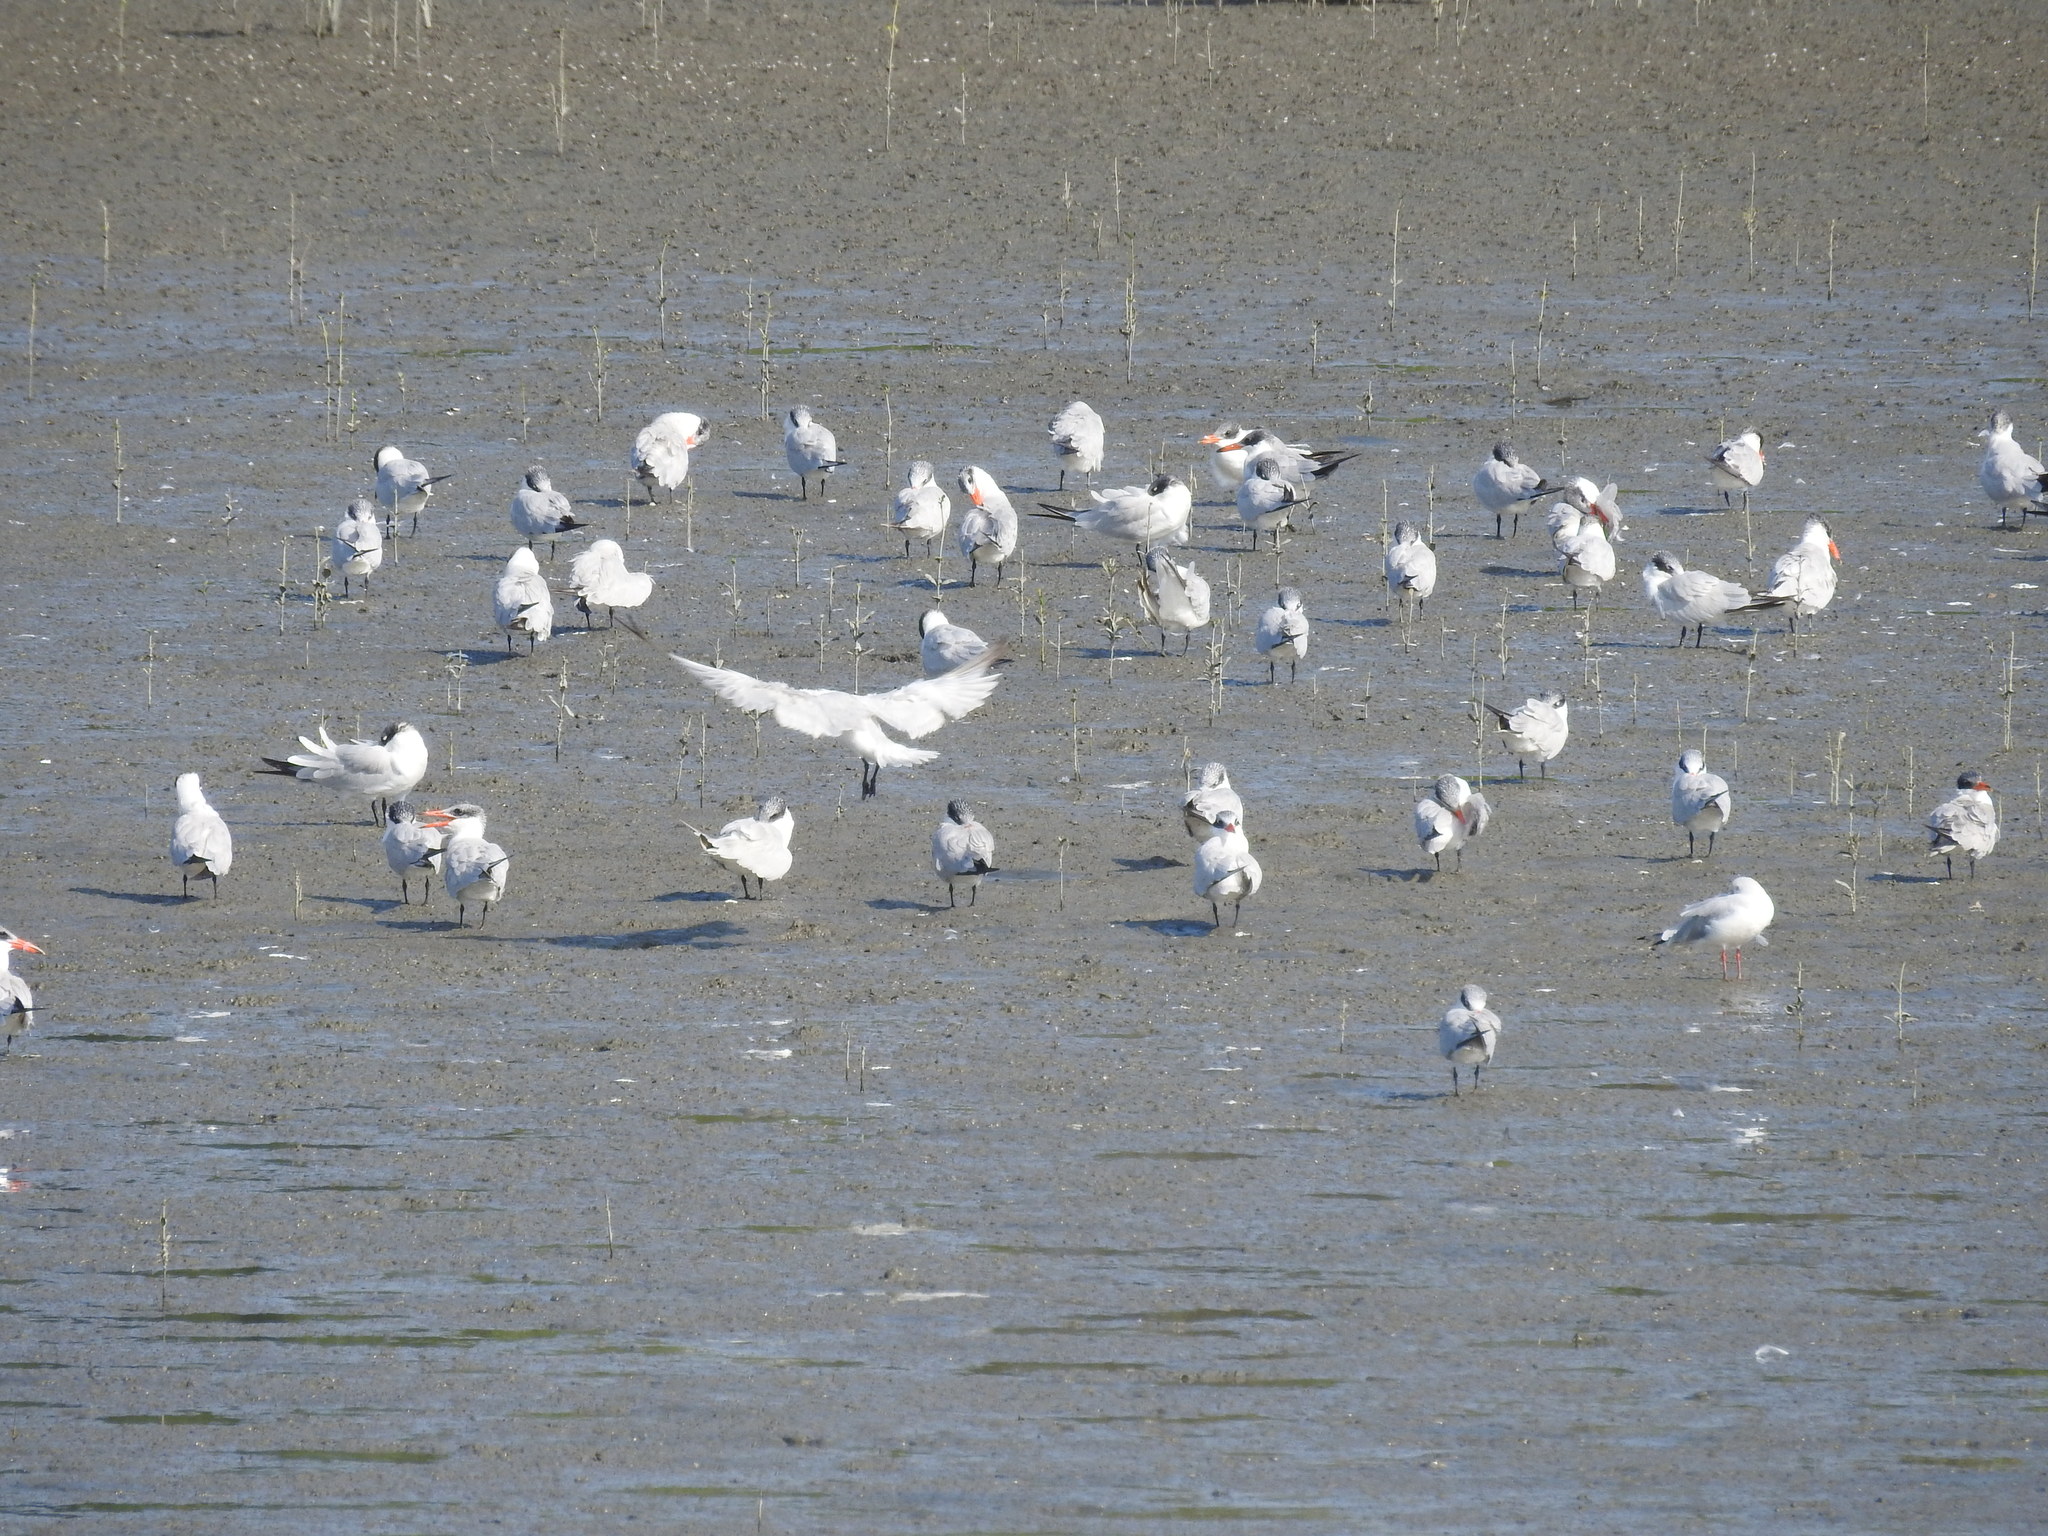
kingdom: Animalia
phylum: Chordata
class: Aves
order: Charadriiformes
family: Laridae
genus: Hydroprogne
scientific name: Hydroprogne caspia
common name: Caspian tern
